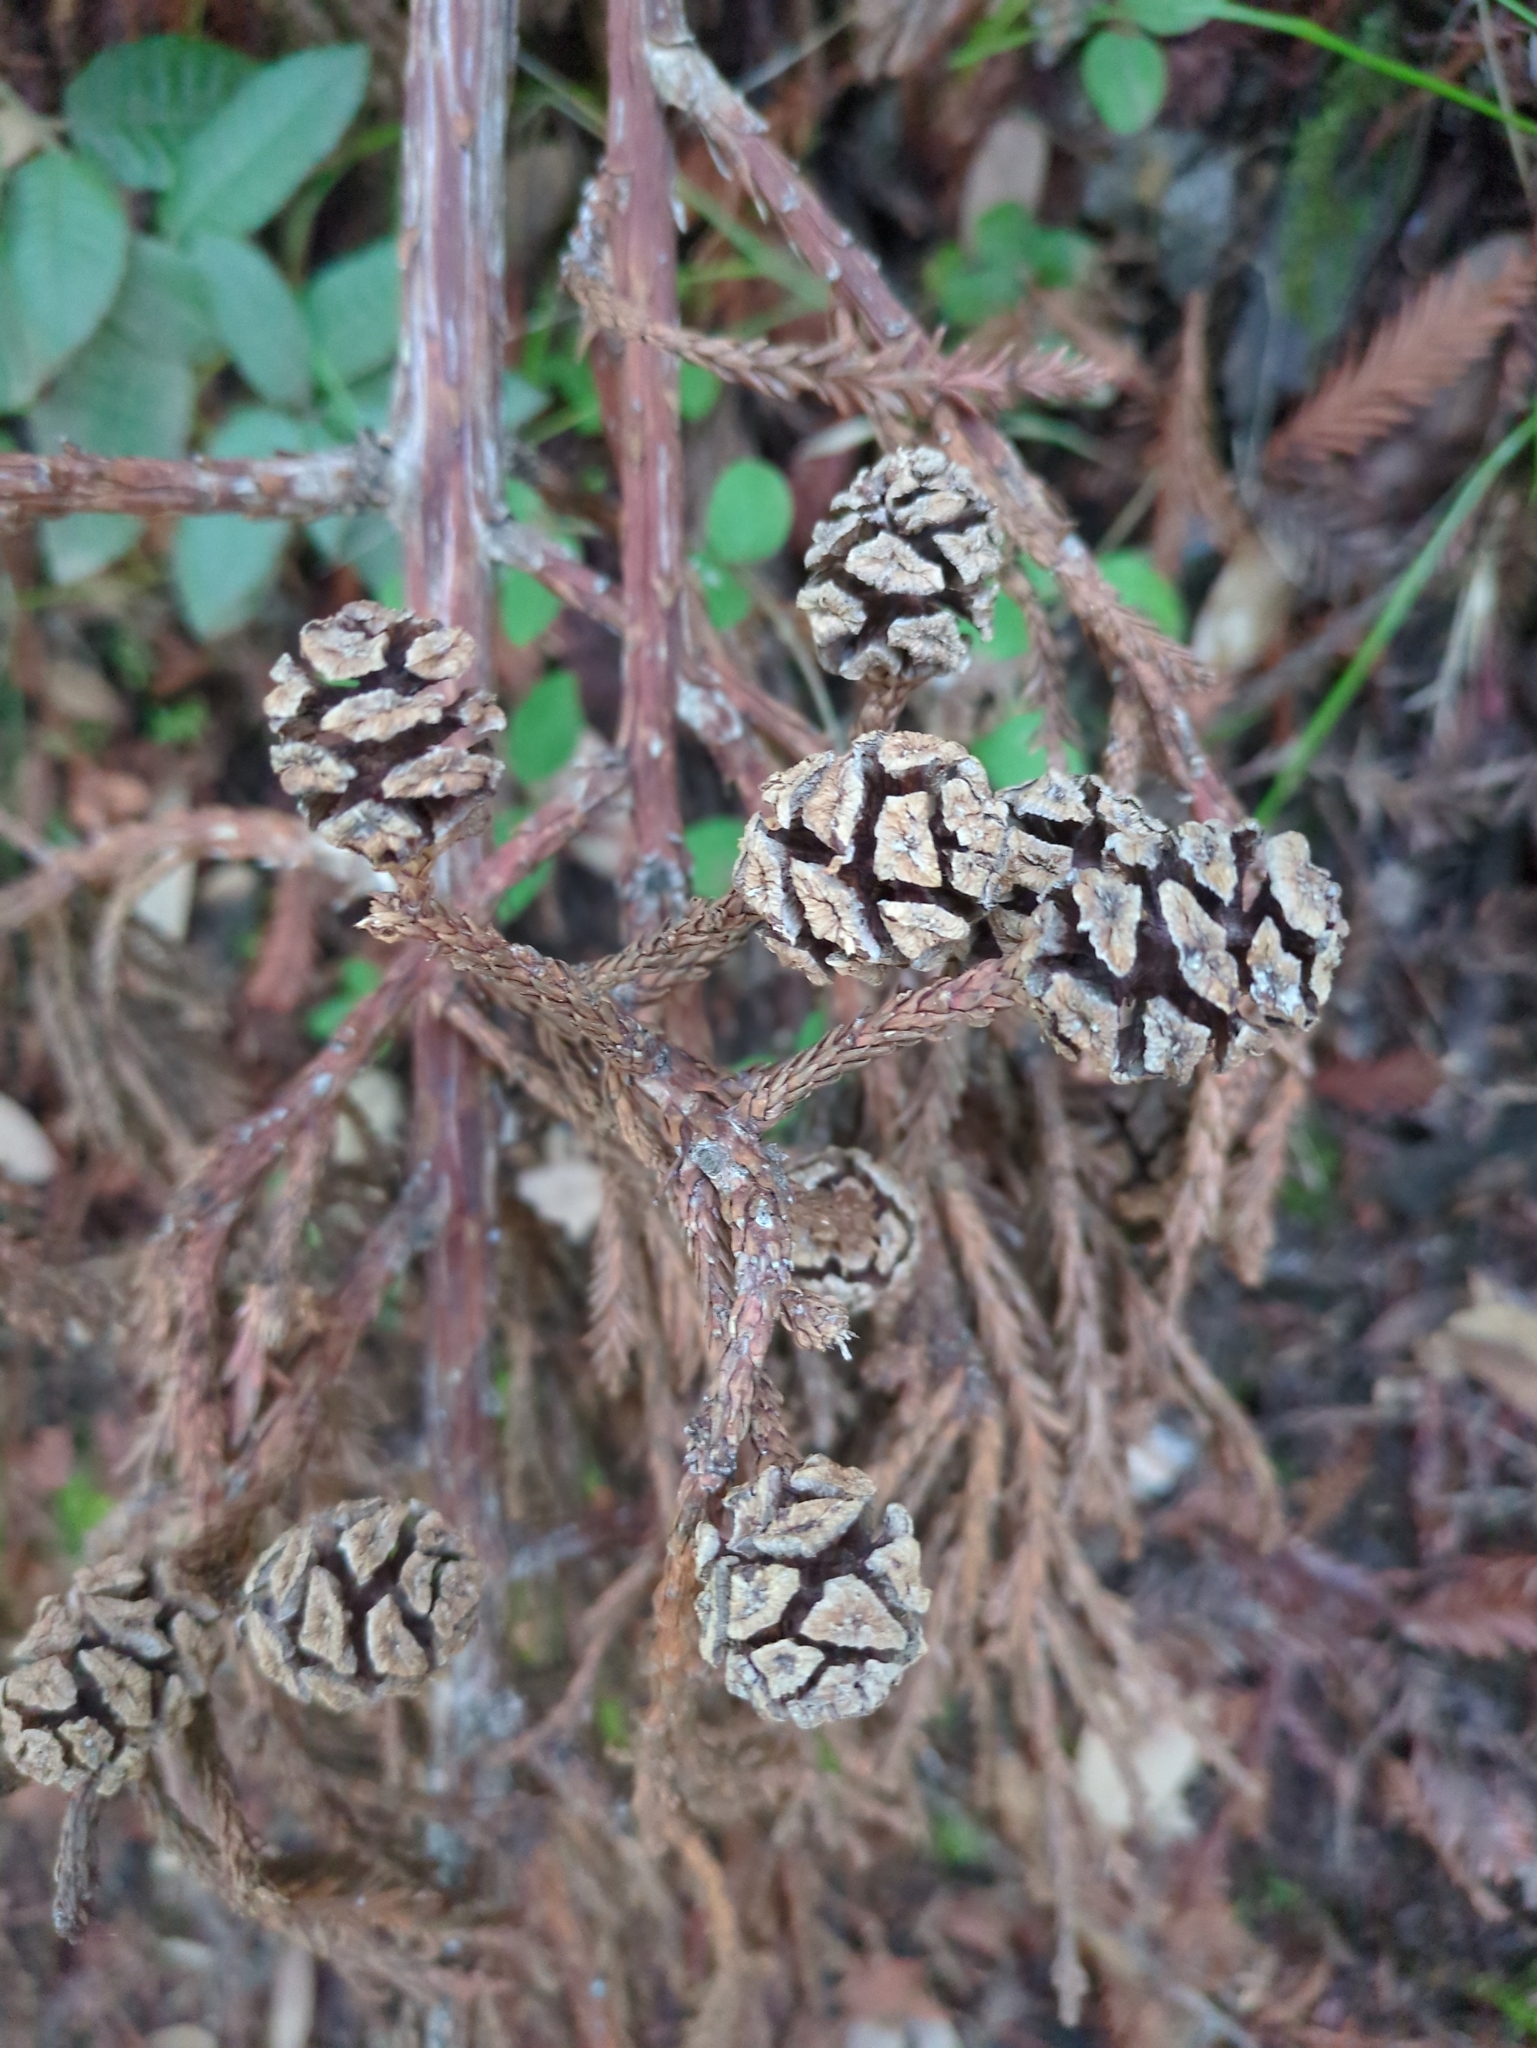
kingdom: Plantae
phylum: Tracheophyta
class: Pinopsida
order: Pinales
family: Cupressaceae
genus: Sequoia
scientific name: Sequoia sempervirens
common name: Coast redwood
